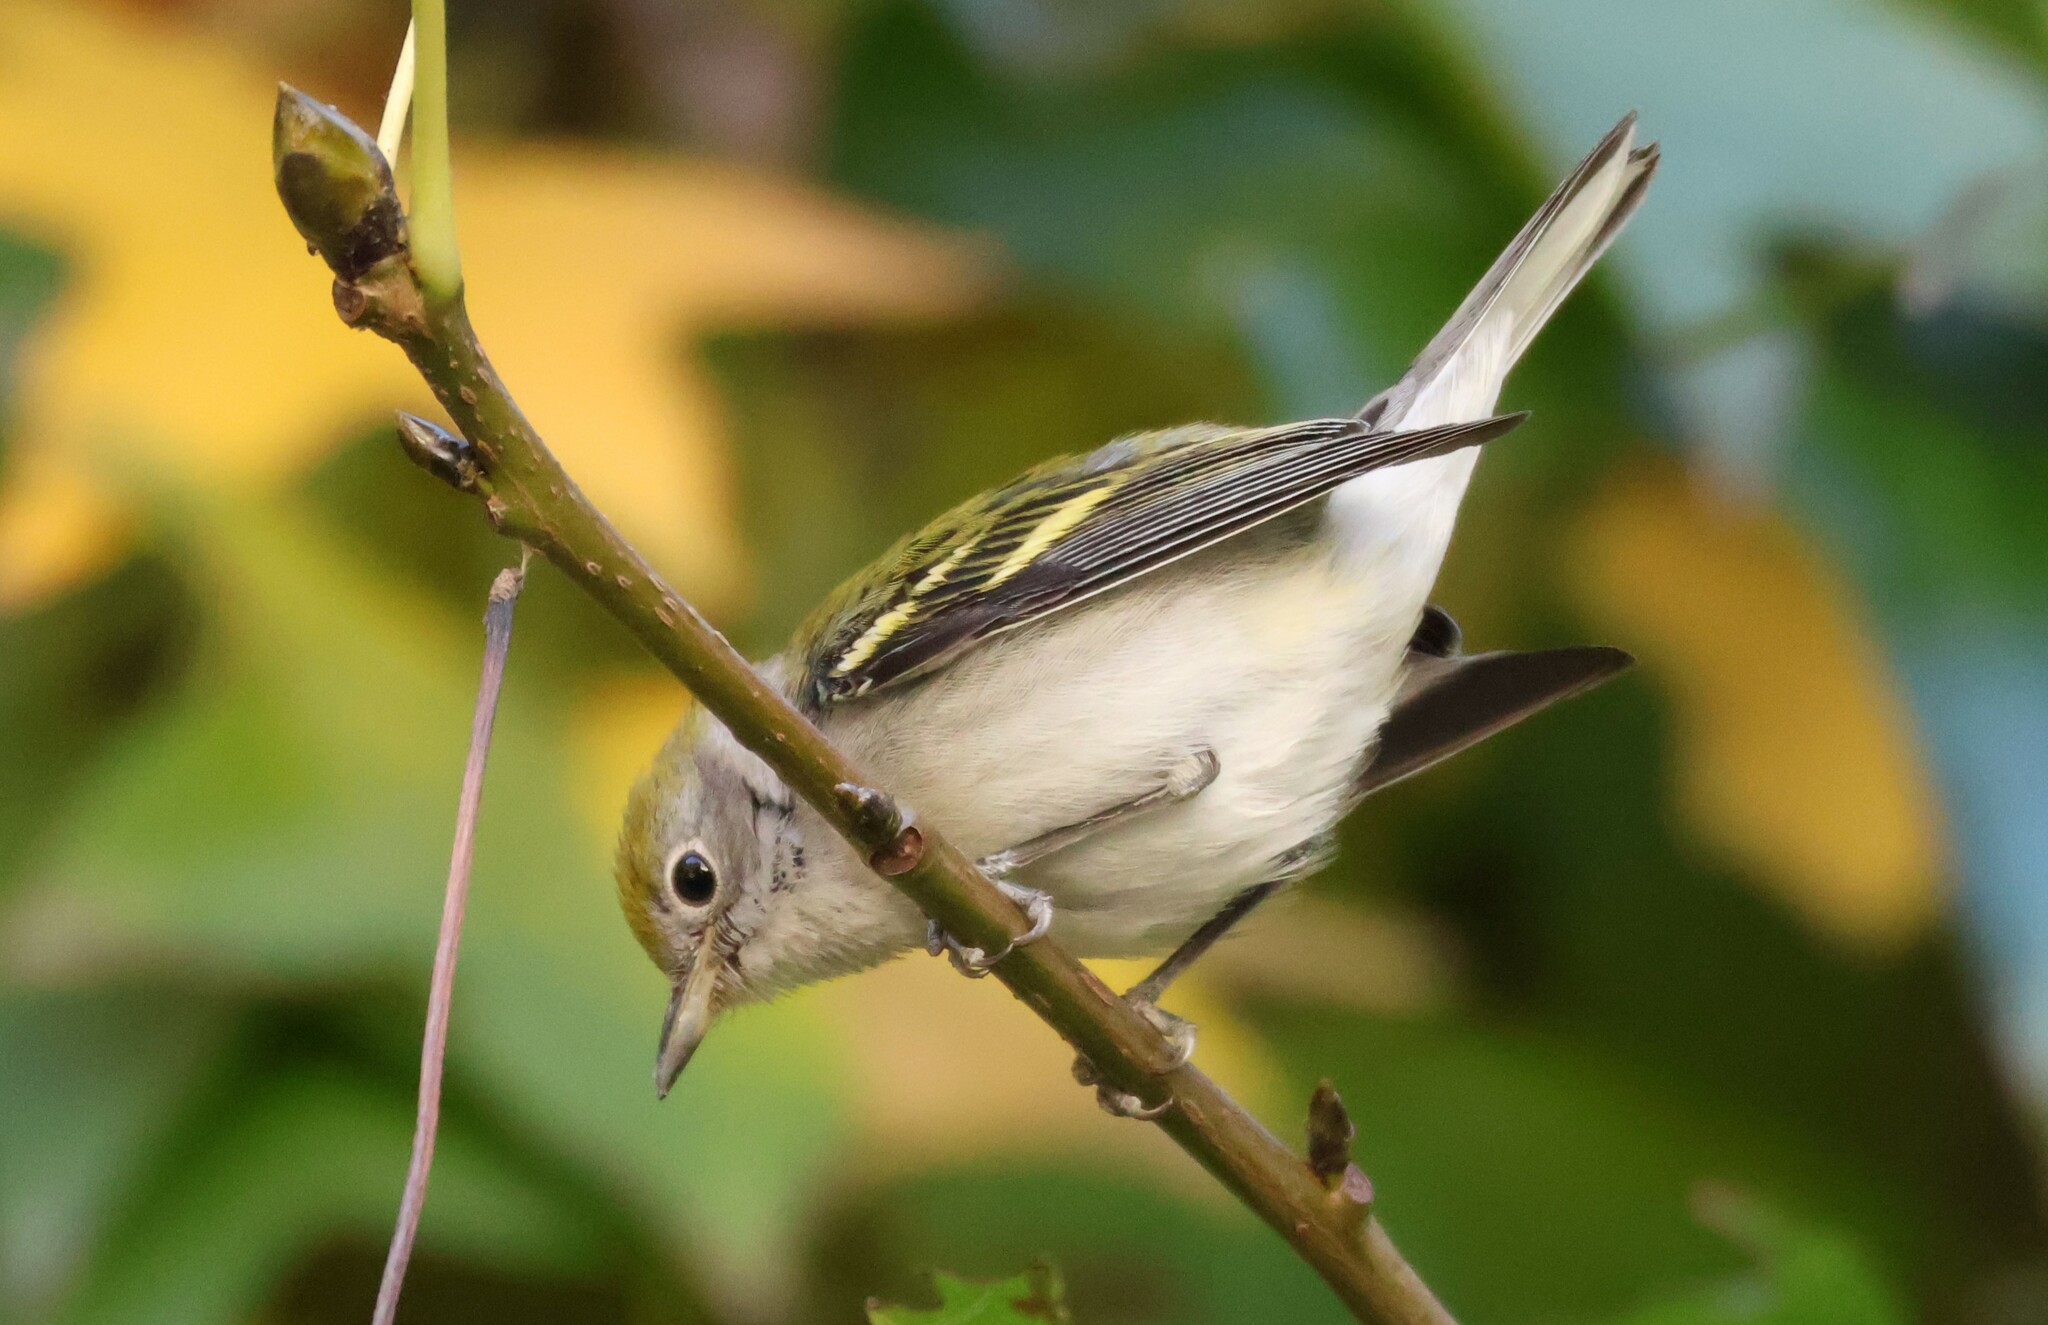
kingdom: Animalia
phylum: Chordata
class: Aves
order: Passeriformes
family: Parulidae
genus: Setophaga
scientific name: Setophaga pensylvanica
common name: Chestnut-sided warbler
